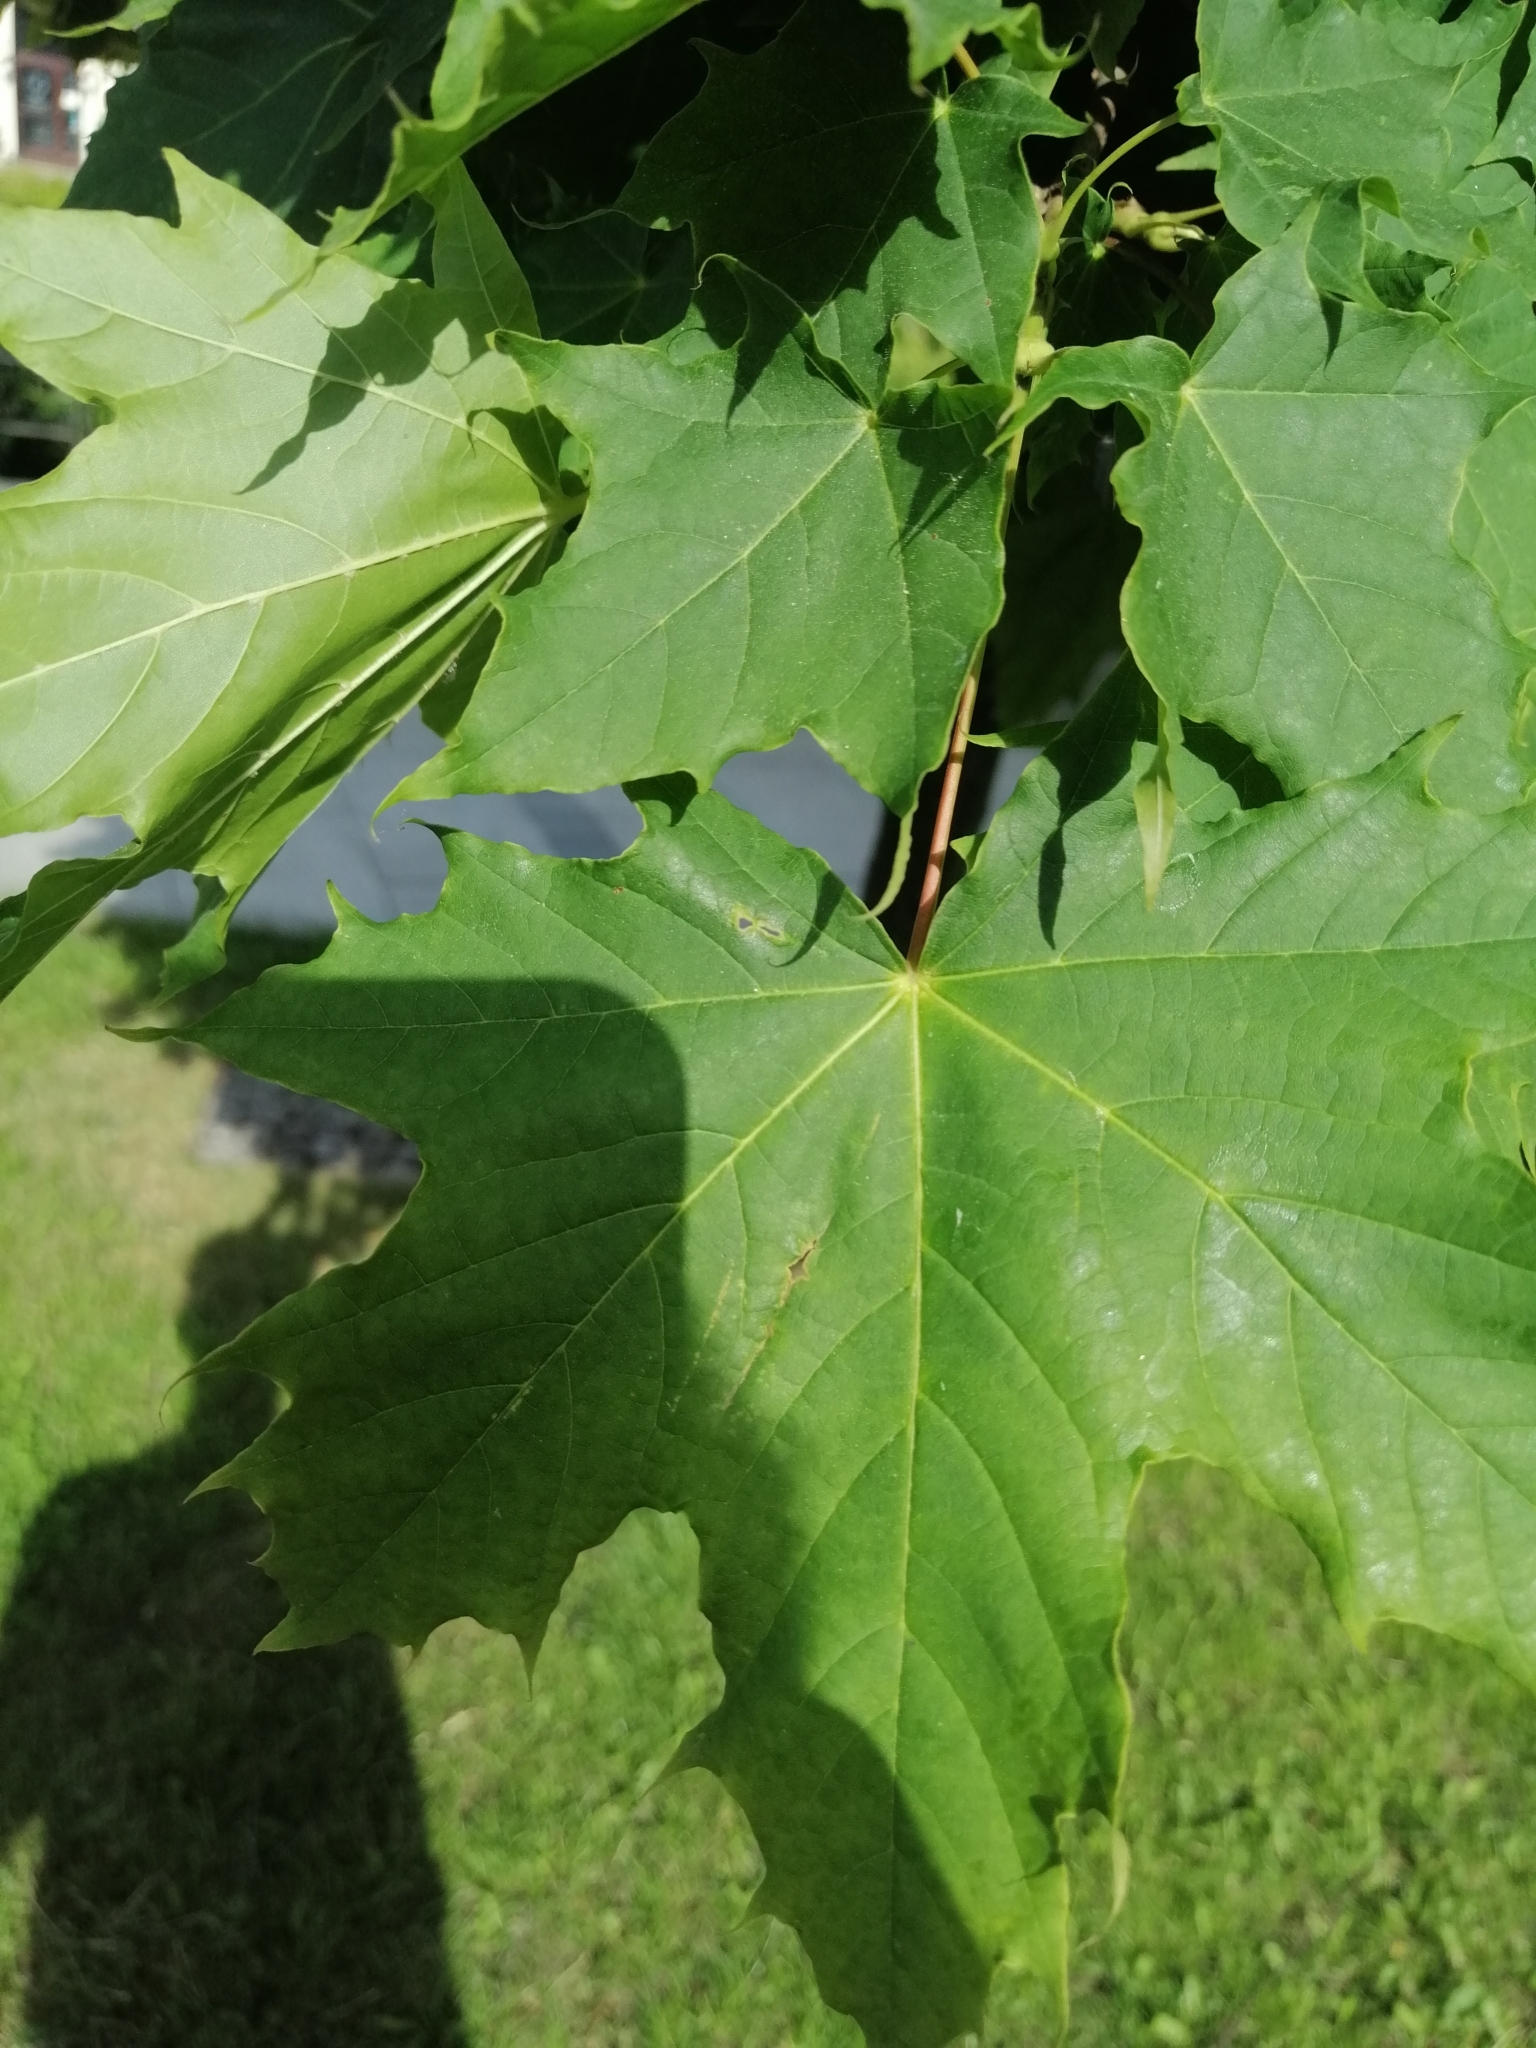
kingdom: Plantae
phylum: Tracheophyta
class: Magnoliopsida
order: Sapindales
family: Sapindaceae
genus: Acer
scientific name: Acer platanoides
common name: Norway maple
